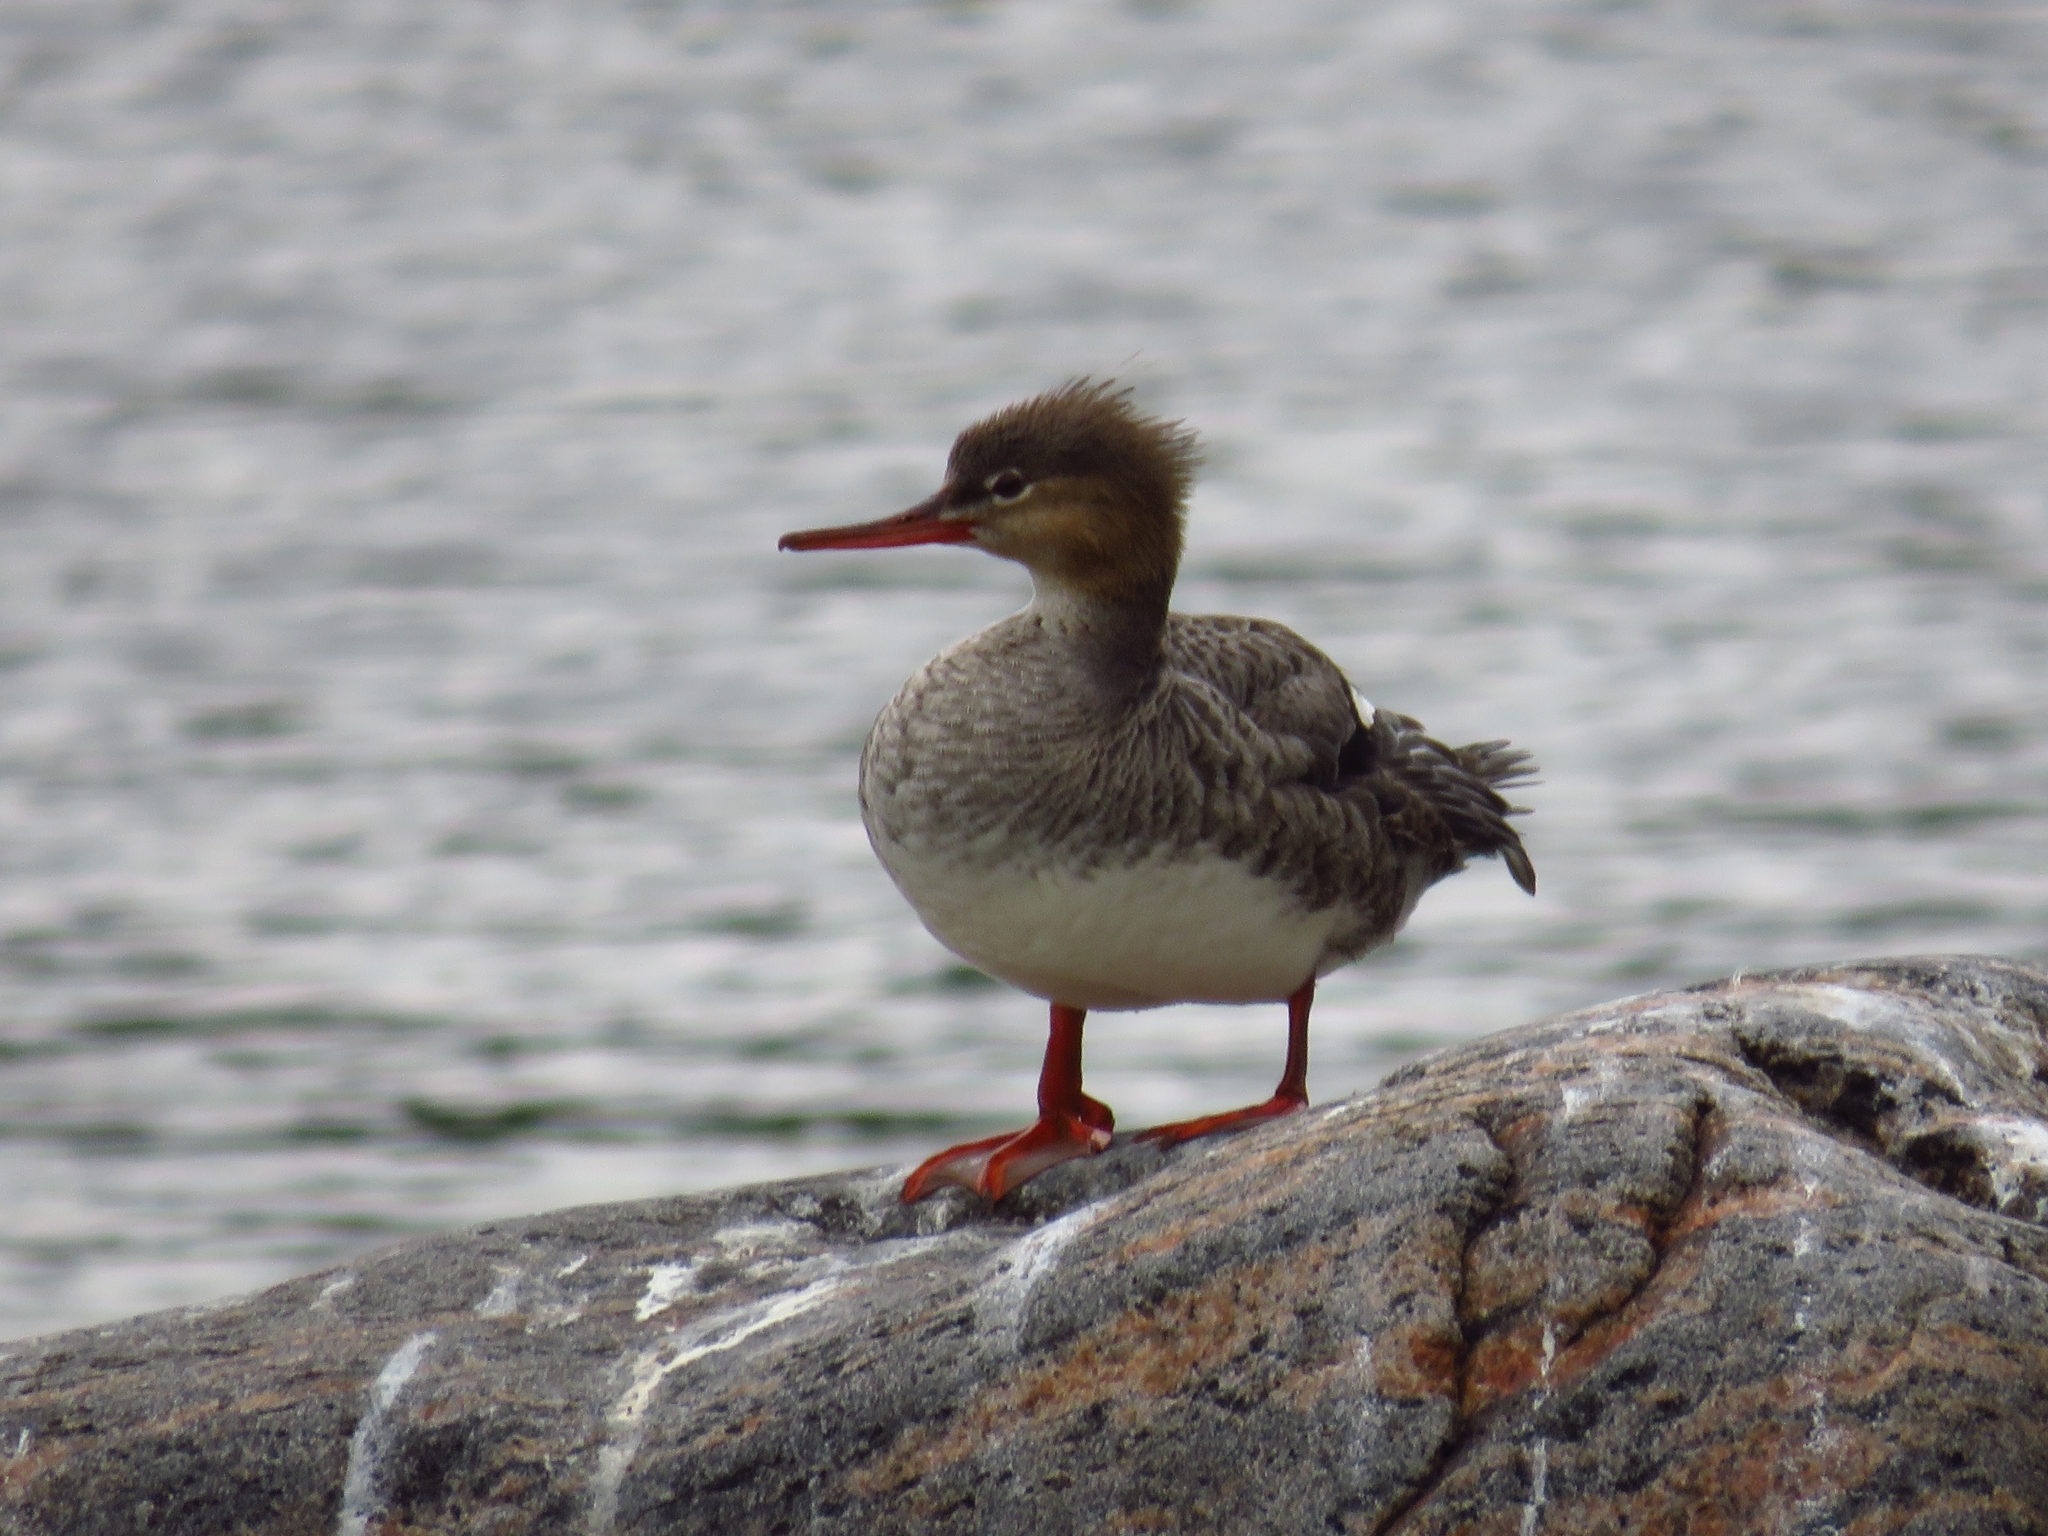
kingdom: Animalia
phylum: Chordata
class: Aves
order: Anseriformes
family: Anatidae
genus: Mergus
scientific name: Mergus serrator
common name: Red-breasted merganser
